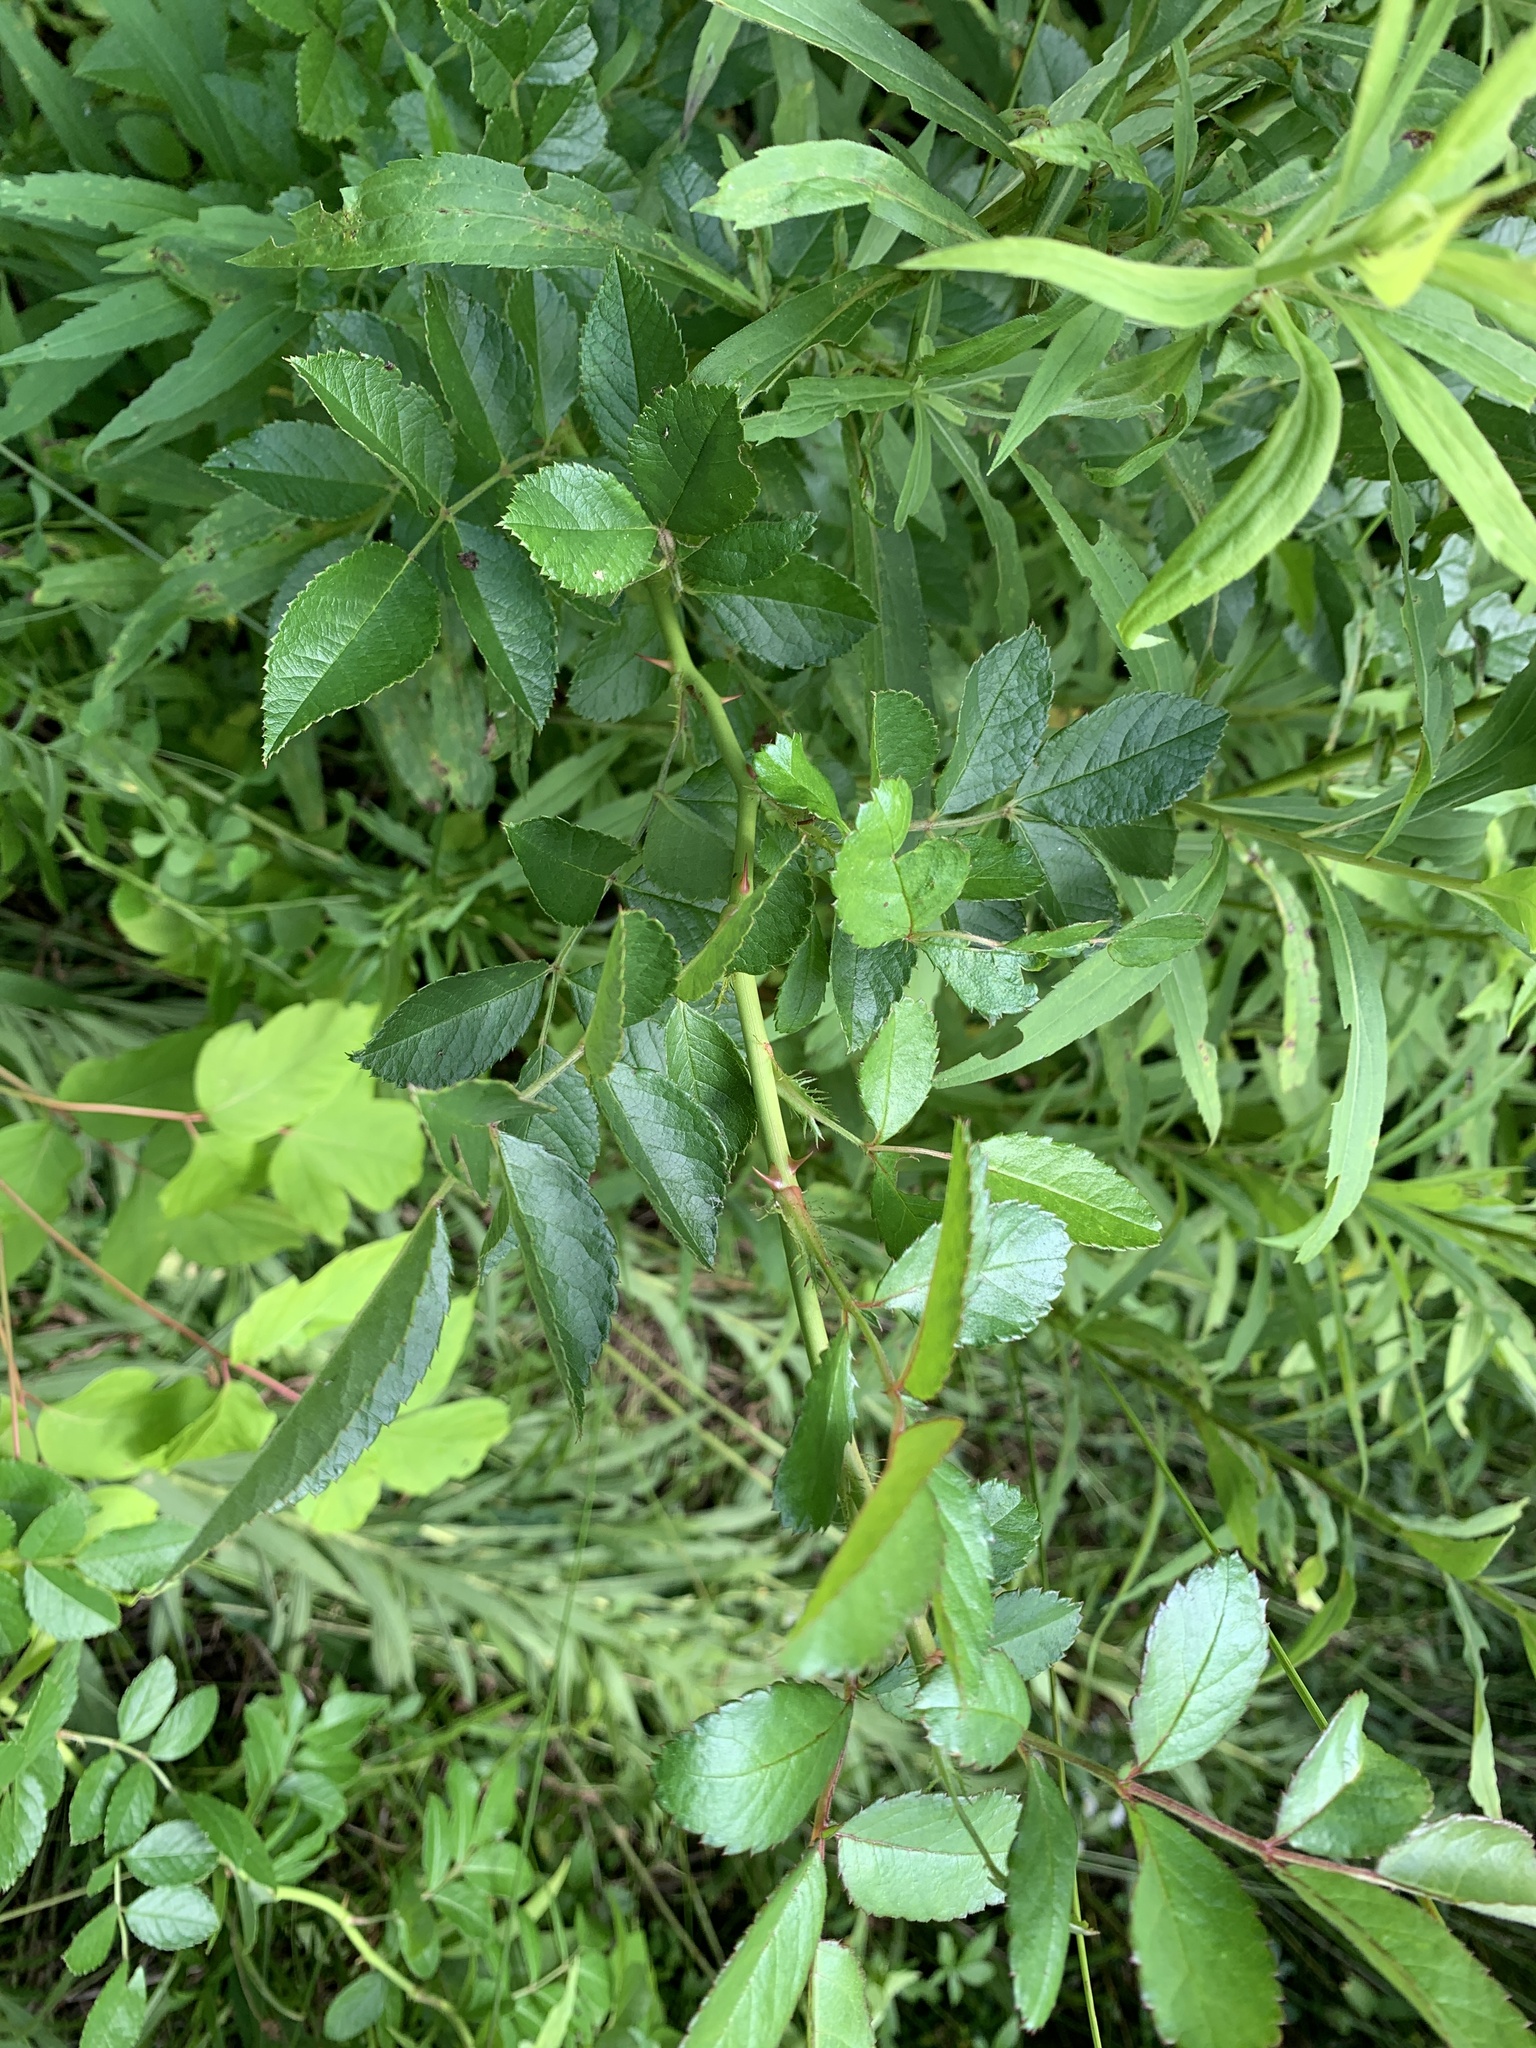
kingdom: Plantae
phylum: Tracheophyta
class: Magnoliopsida
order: Rosales
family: Rosaceae
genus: Rosa
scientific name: Rosa multiflora
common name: Multiflora rose
